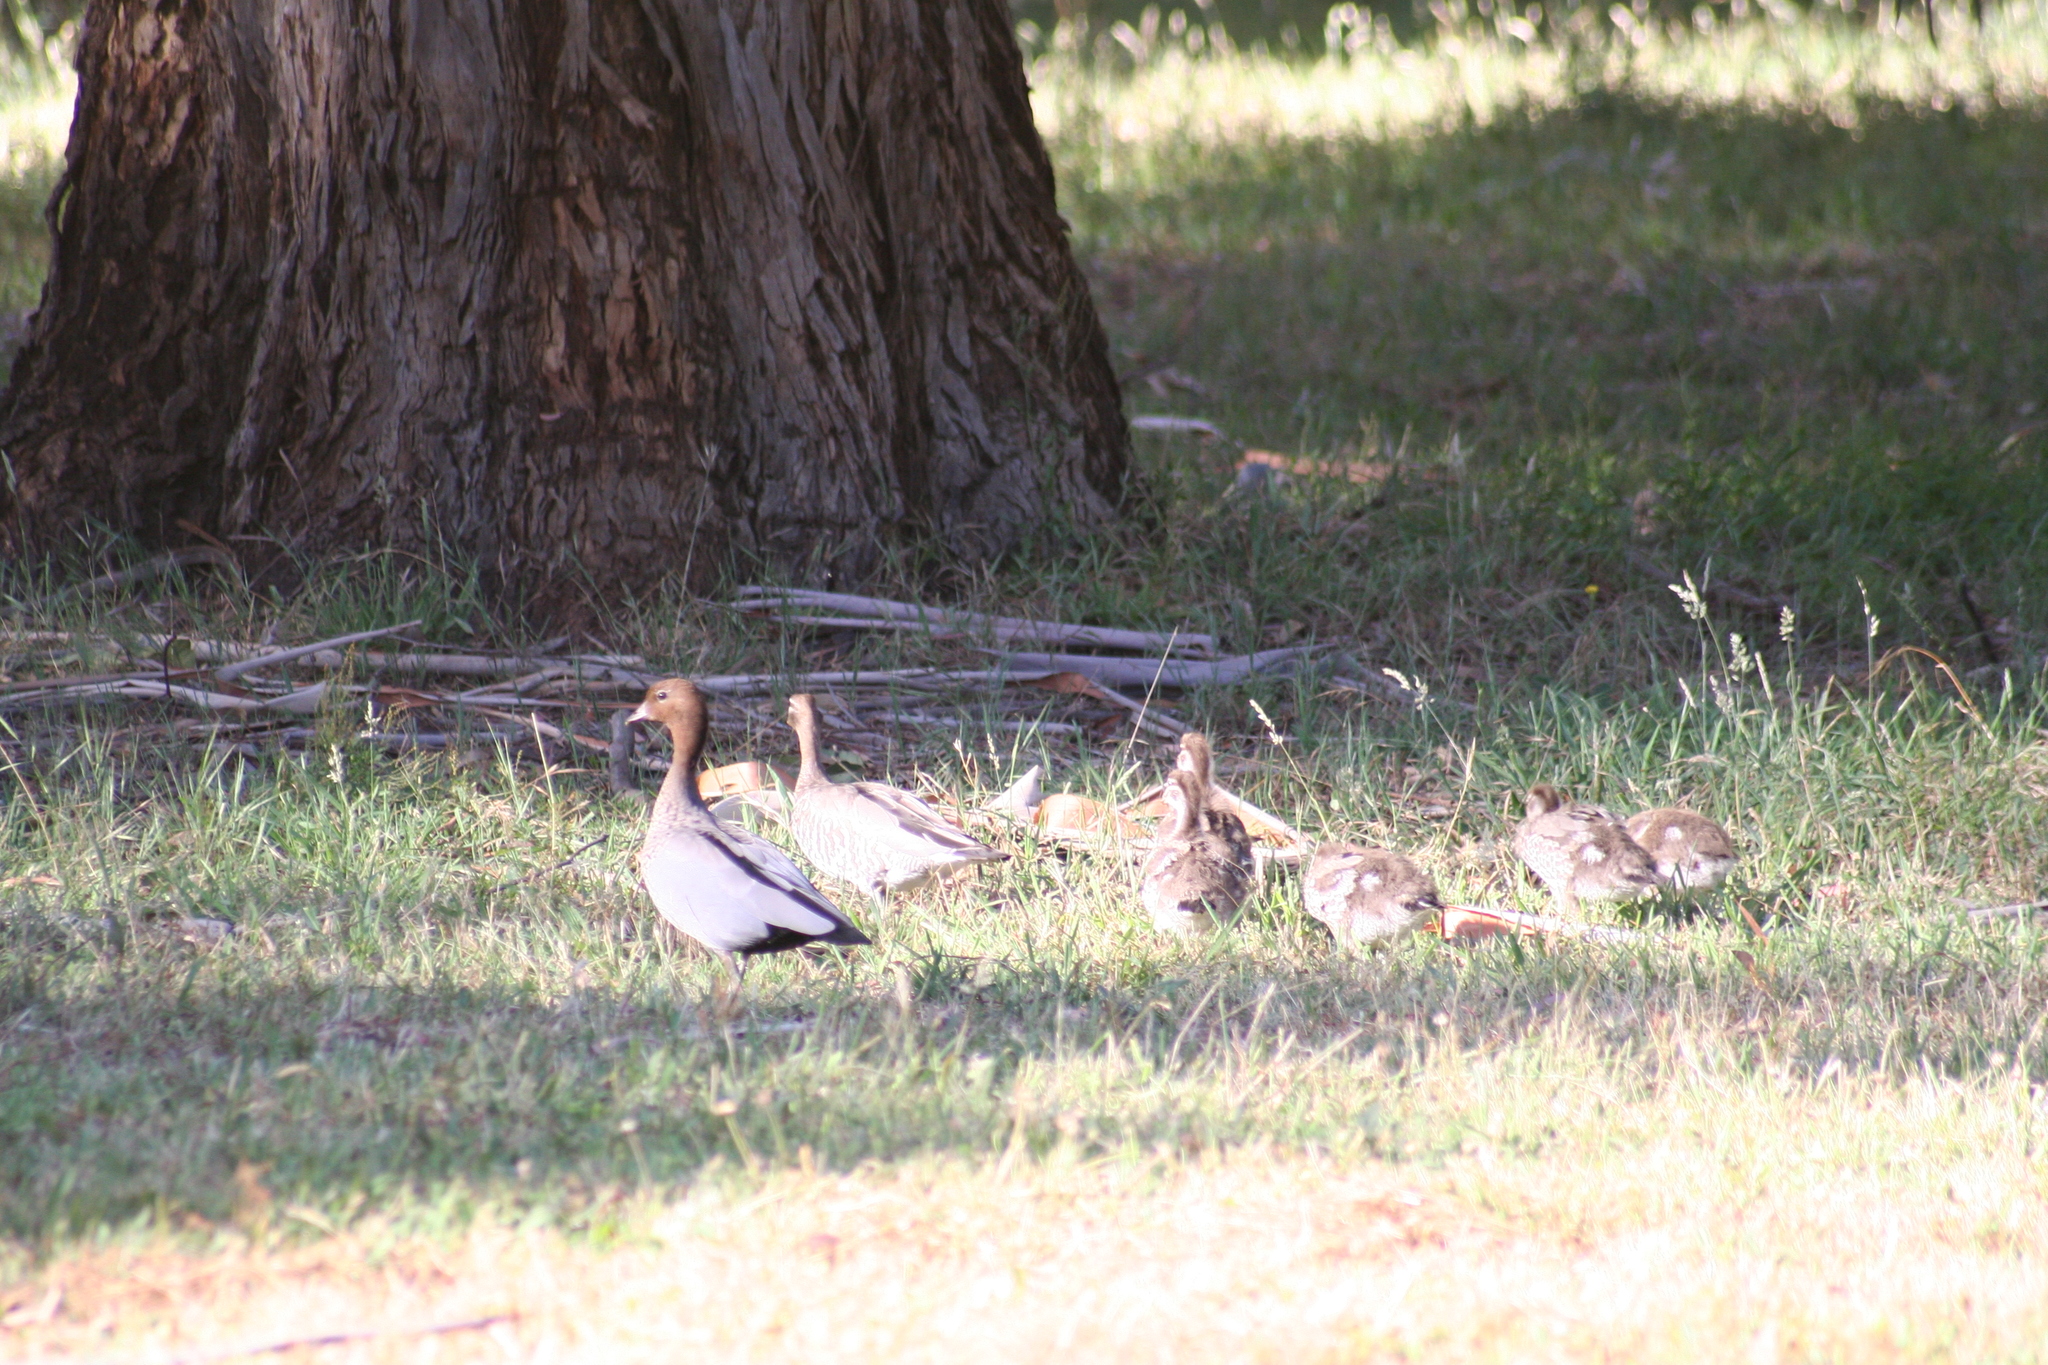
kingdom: Animalia
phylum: Chordata
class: Aves
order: Anseriformes
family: Anatidae
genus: Chenonetta
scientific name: Chenonetta jubata
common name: Maned duck
